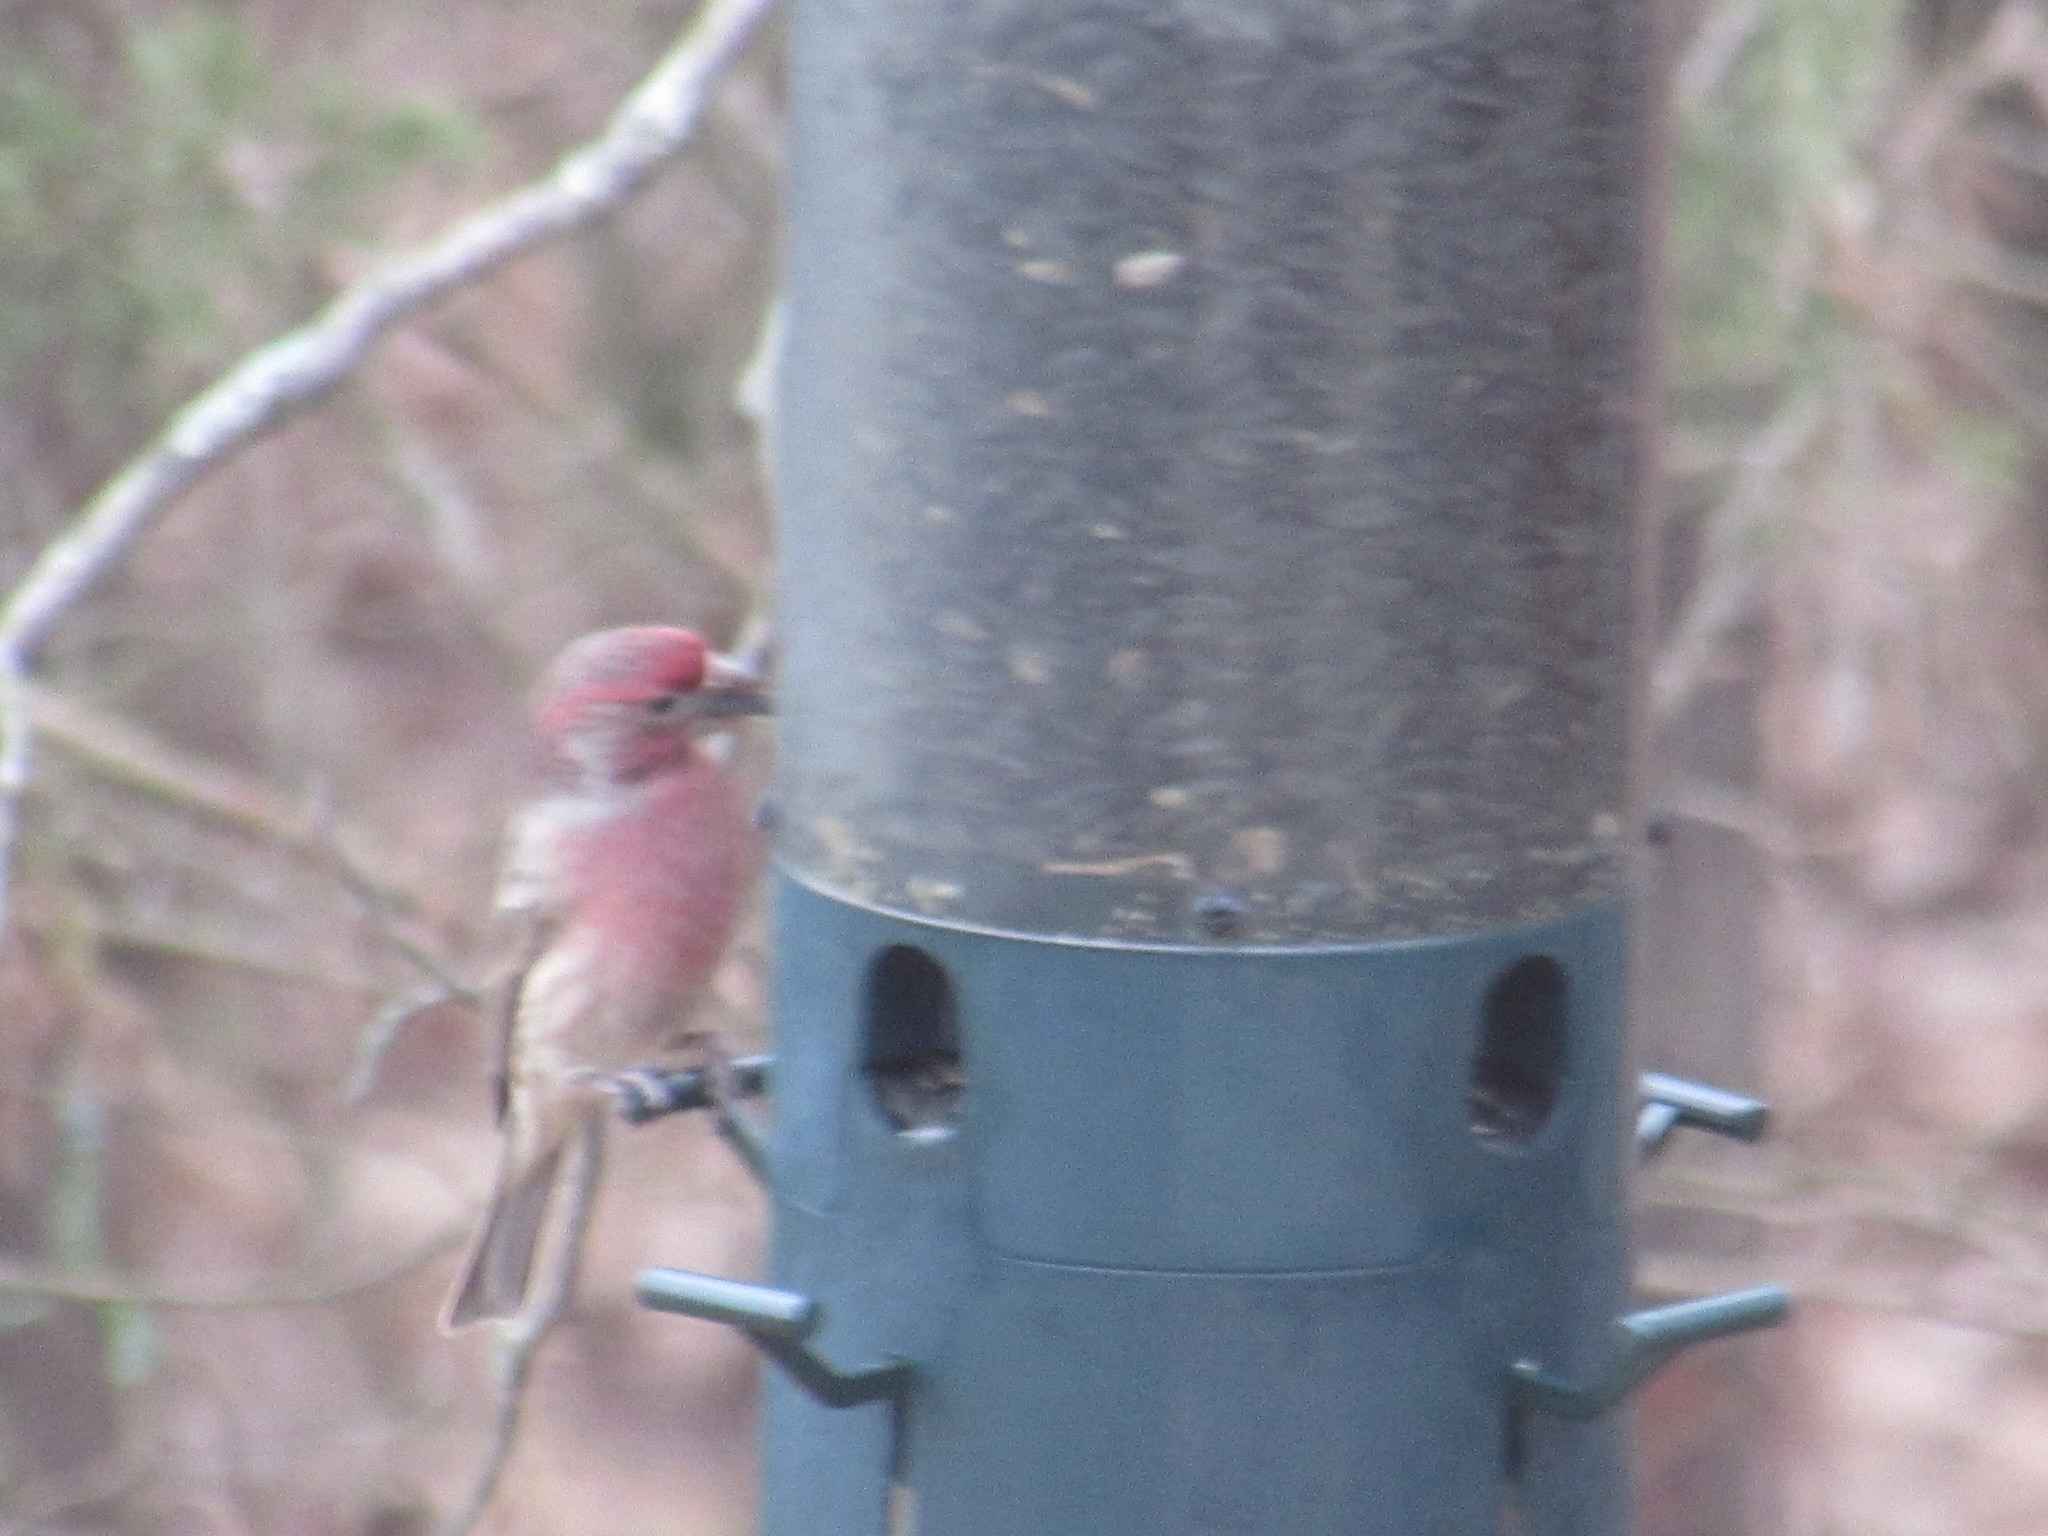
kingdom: Animalia
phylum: Chordata
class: Aves
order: Passeriformes
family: Fringillidae
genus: Haemorhous
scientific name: Haemorhous mexicanus
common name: House finch
